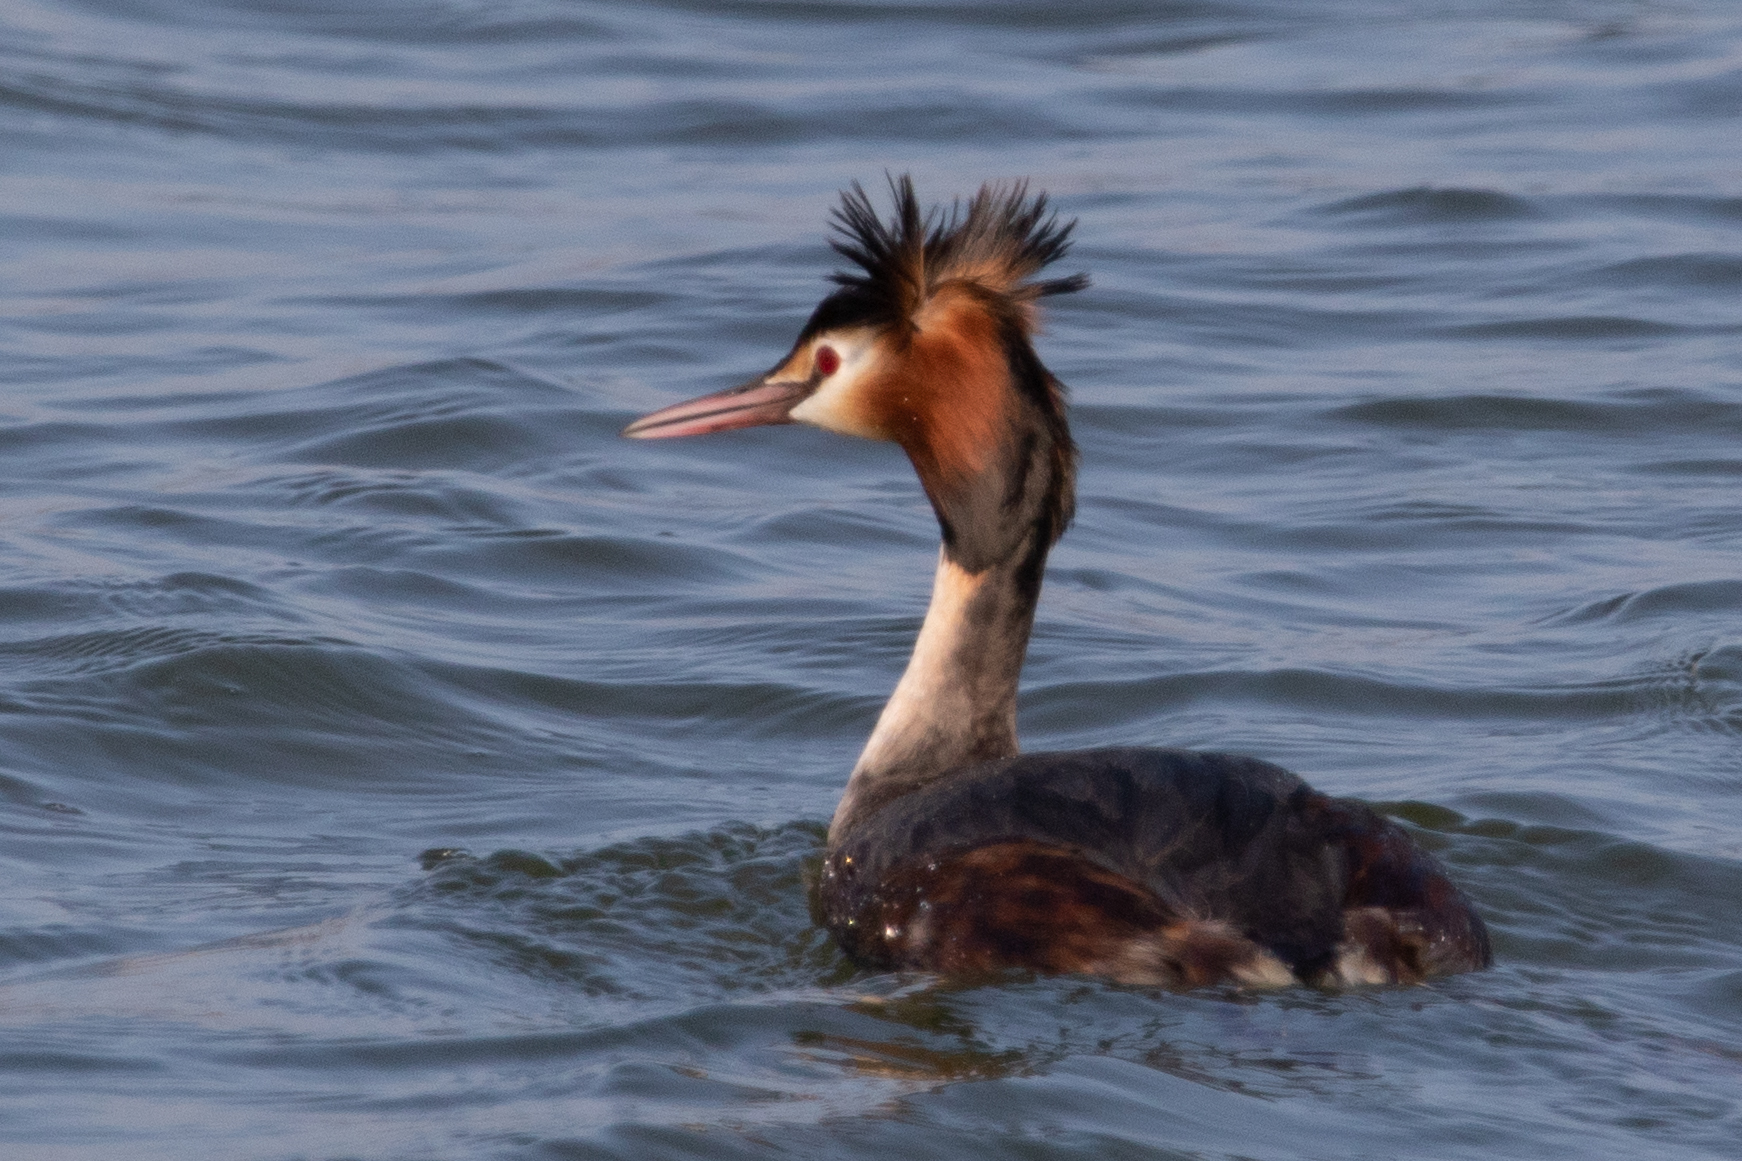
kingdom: Animalia
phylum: Chordata
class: Aves
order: Podicipediformes
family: Podicipedidae
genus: Podiceps
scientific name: Podiceps cristatus
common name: Great crested grebe
